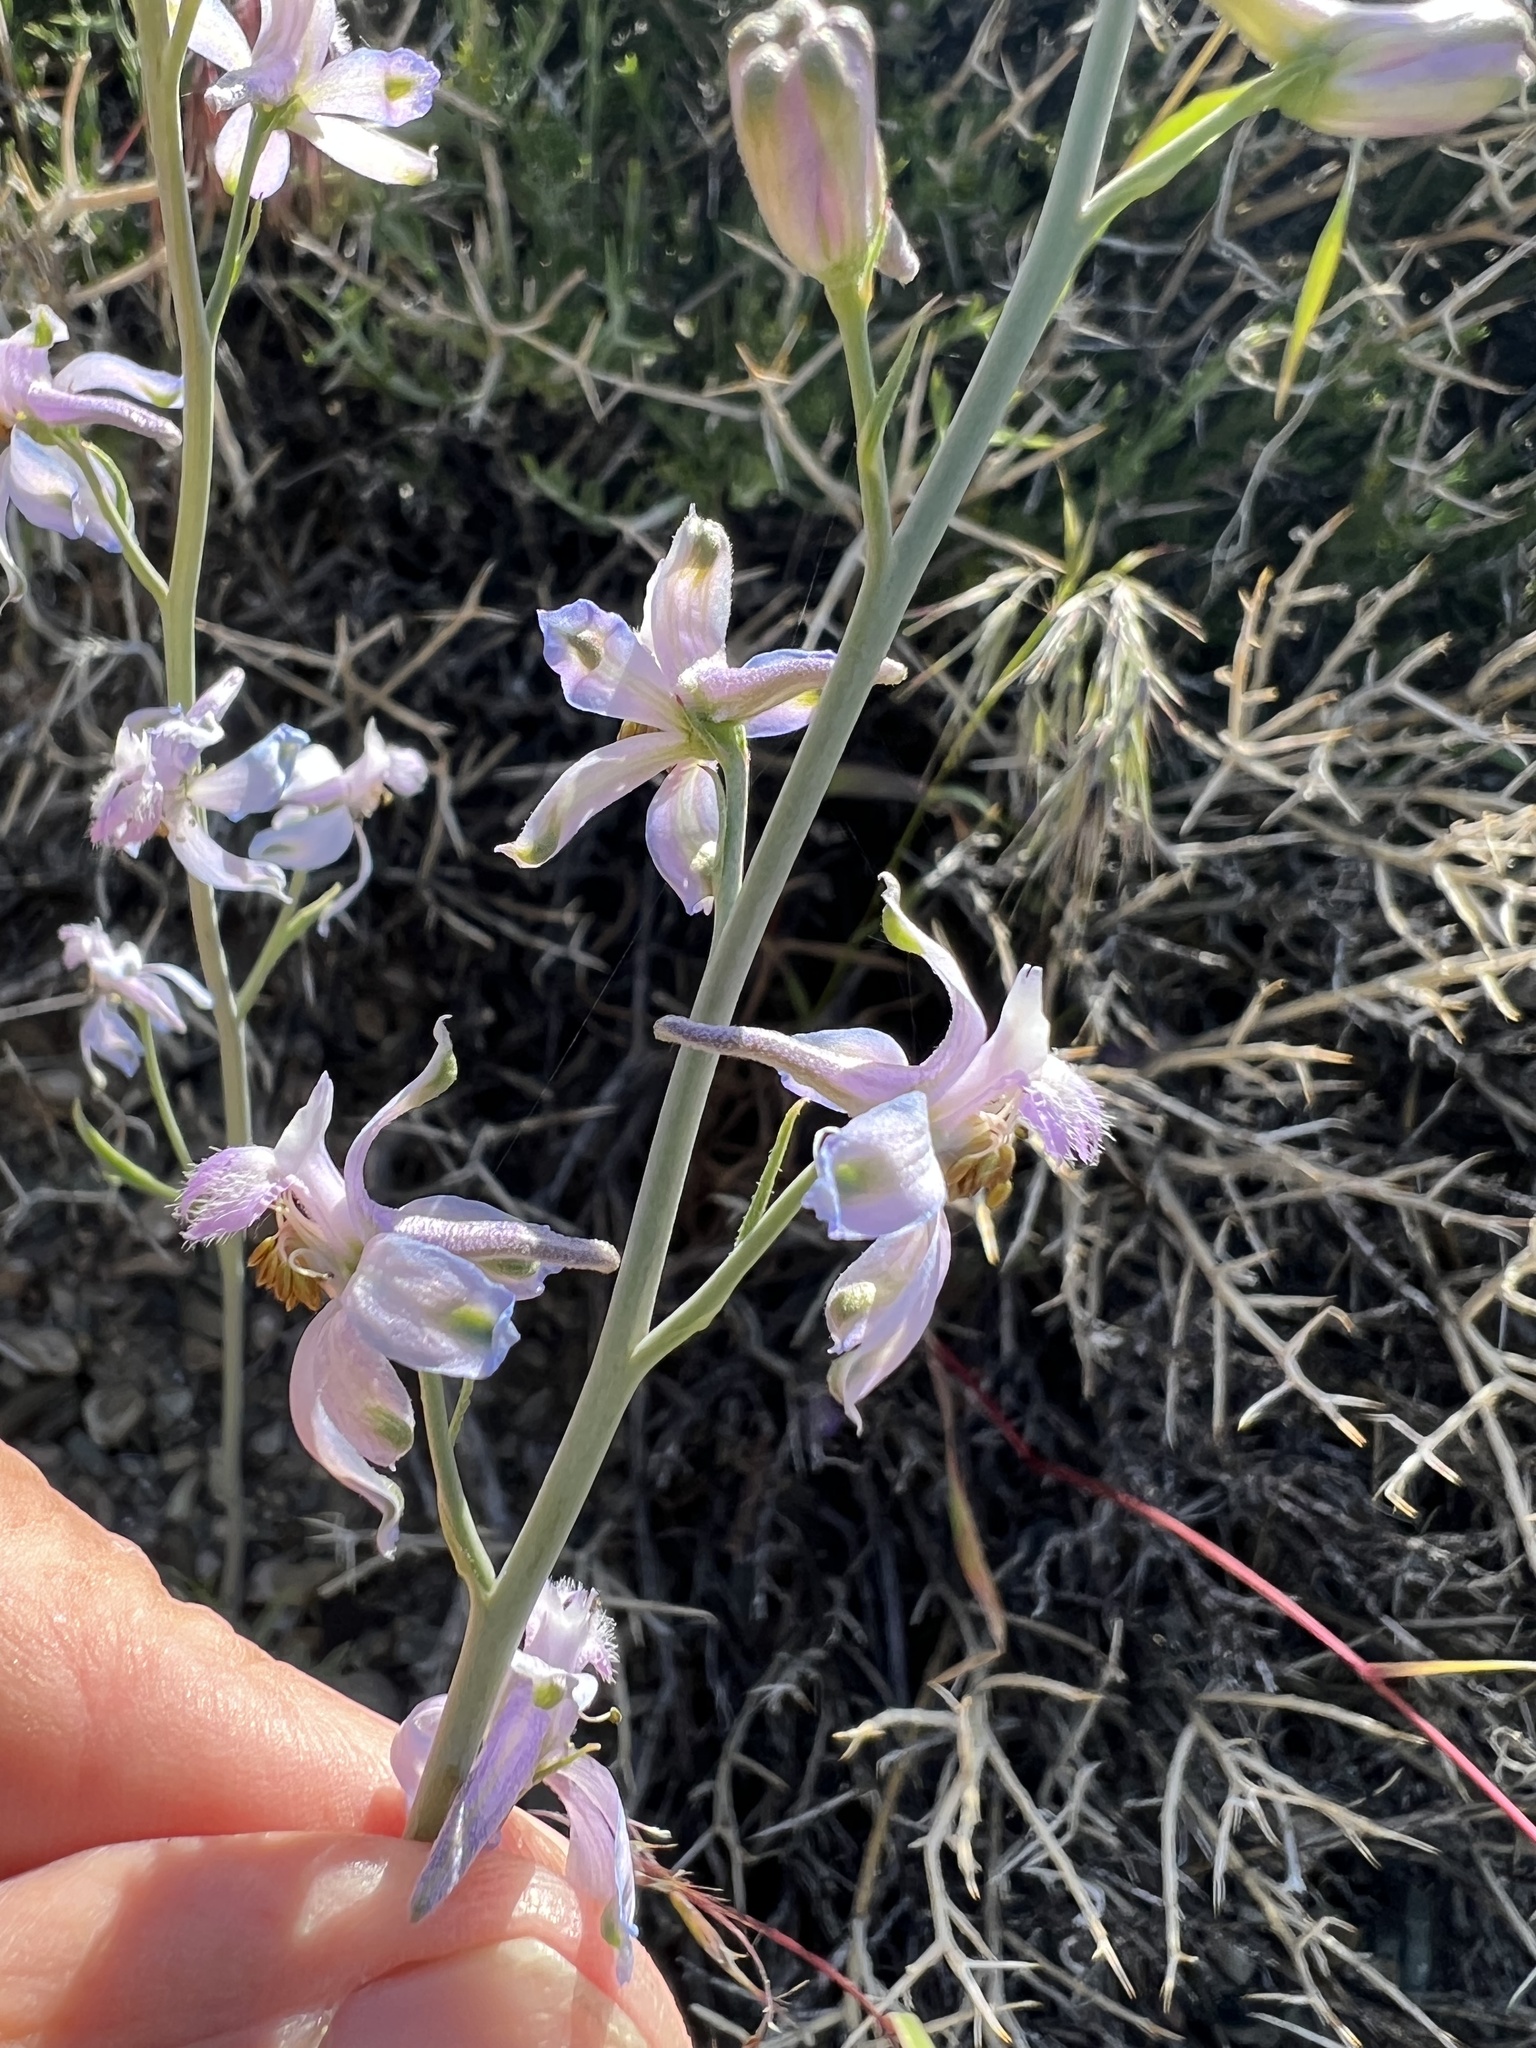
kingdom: Plantae
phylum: Tracheophyta
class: Magnoliopsida
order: Ranunculales
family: Ranunculaceae
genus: Delphinium
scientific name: Delphinium parishii
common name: Apache larkspur
